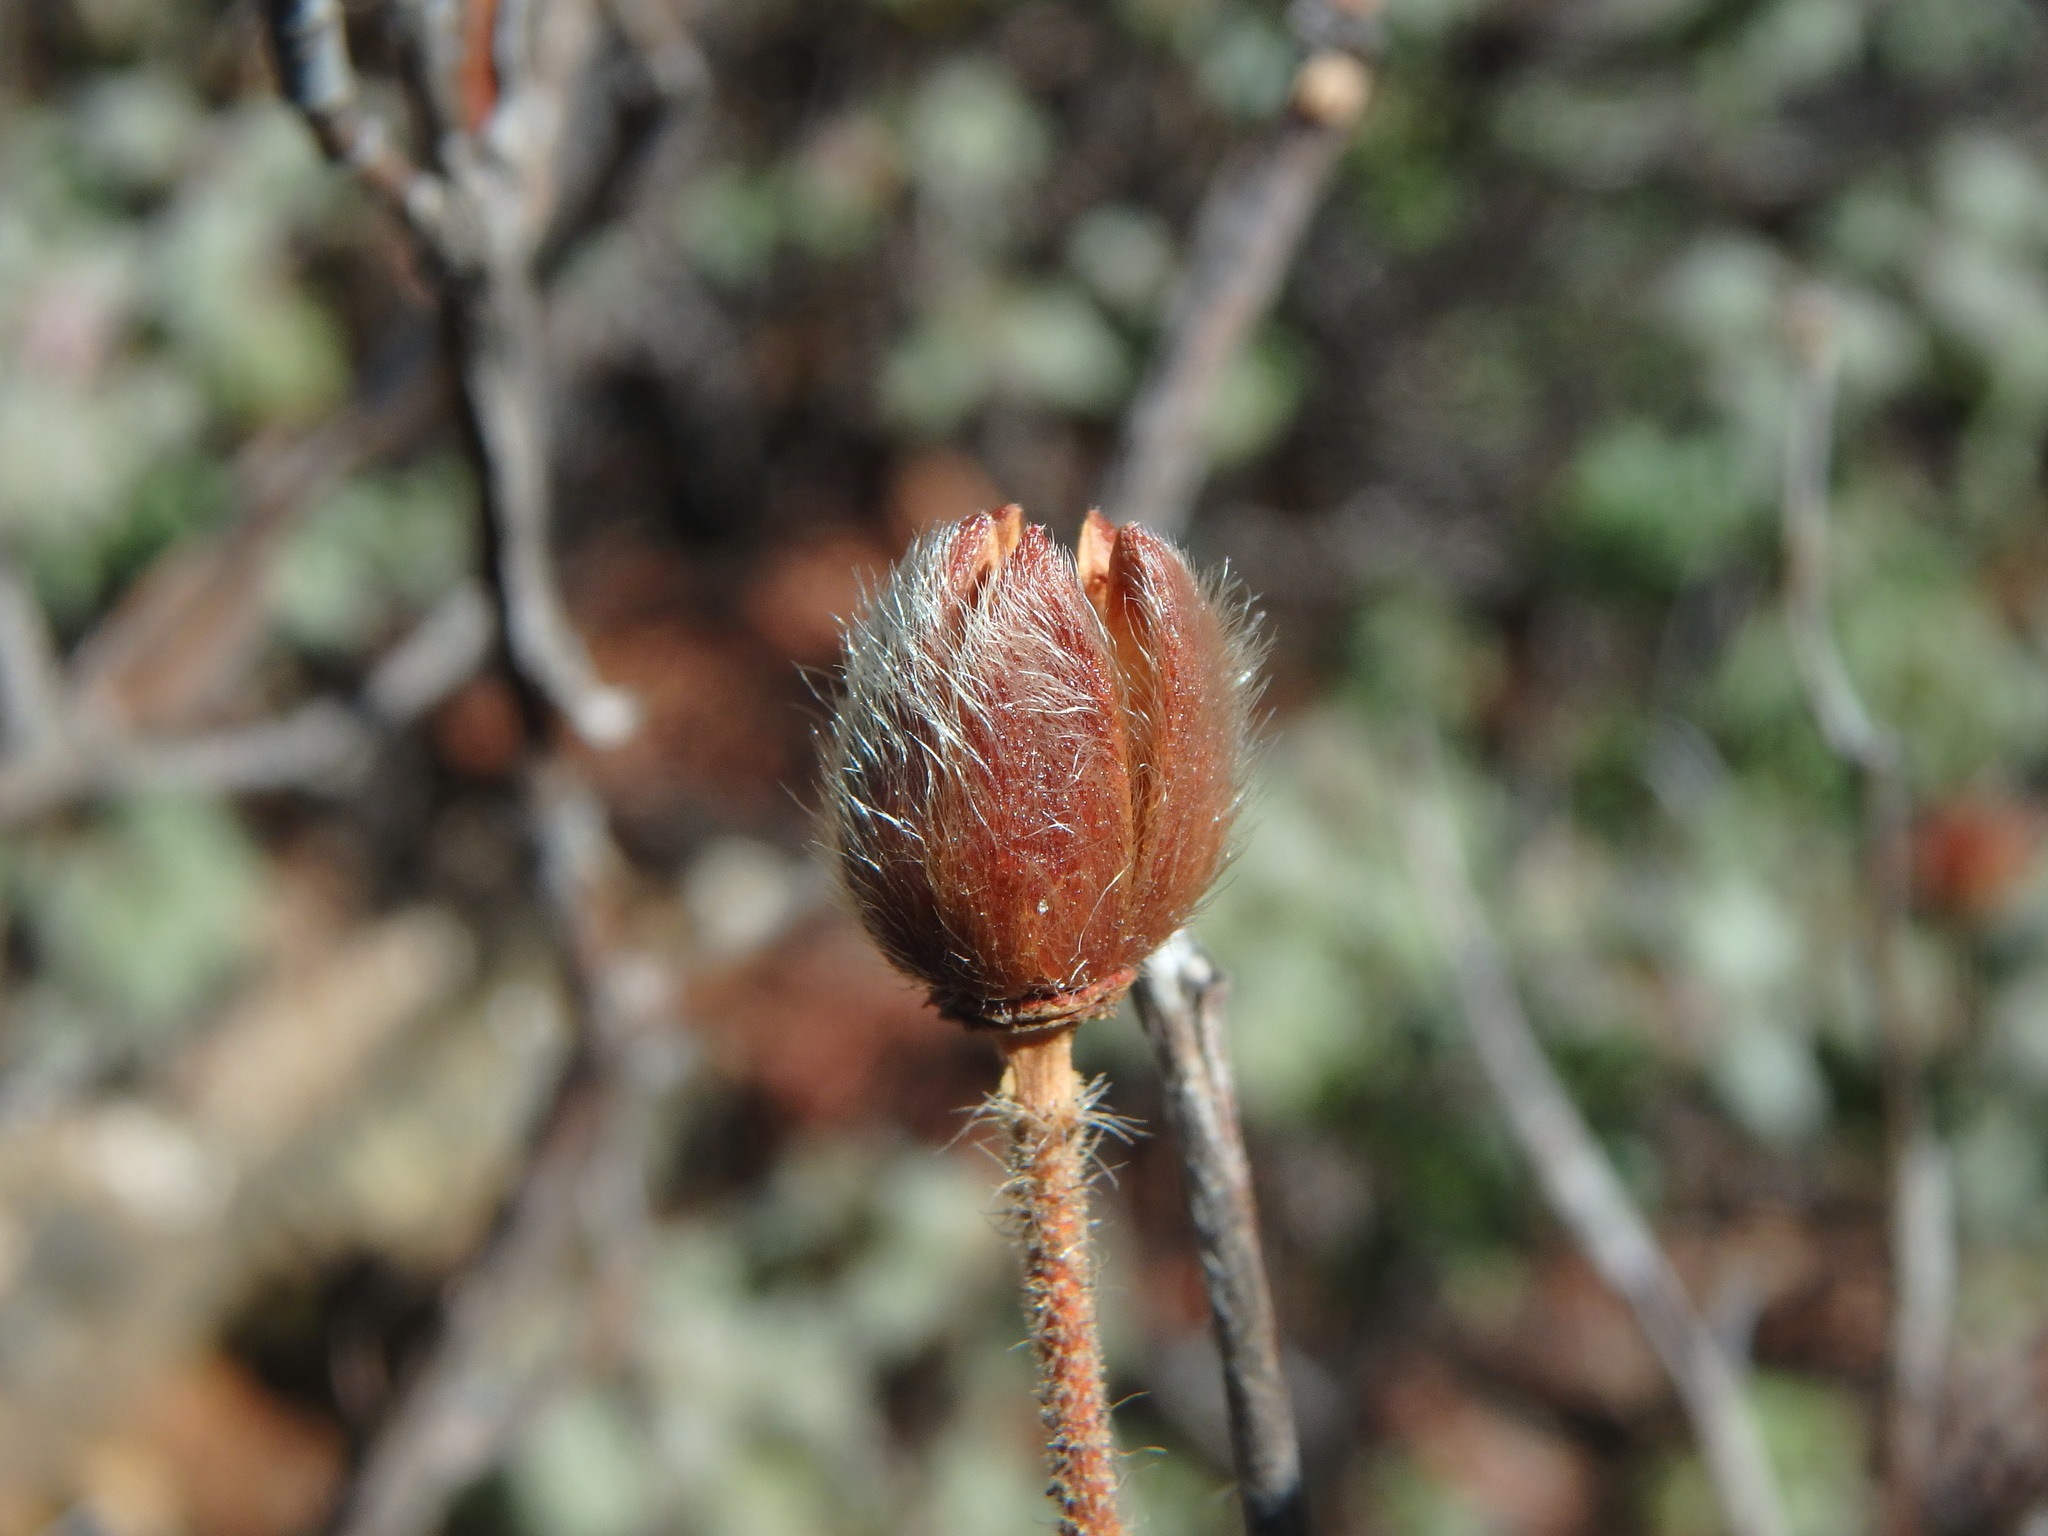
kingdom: Plantae
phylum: Tracheophyta
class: Magnoliopsida
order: Malvales
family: Cistaceae
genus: Cistus
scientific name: Cistus creticus
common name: Cretan rockrose
